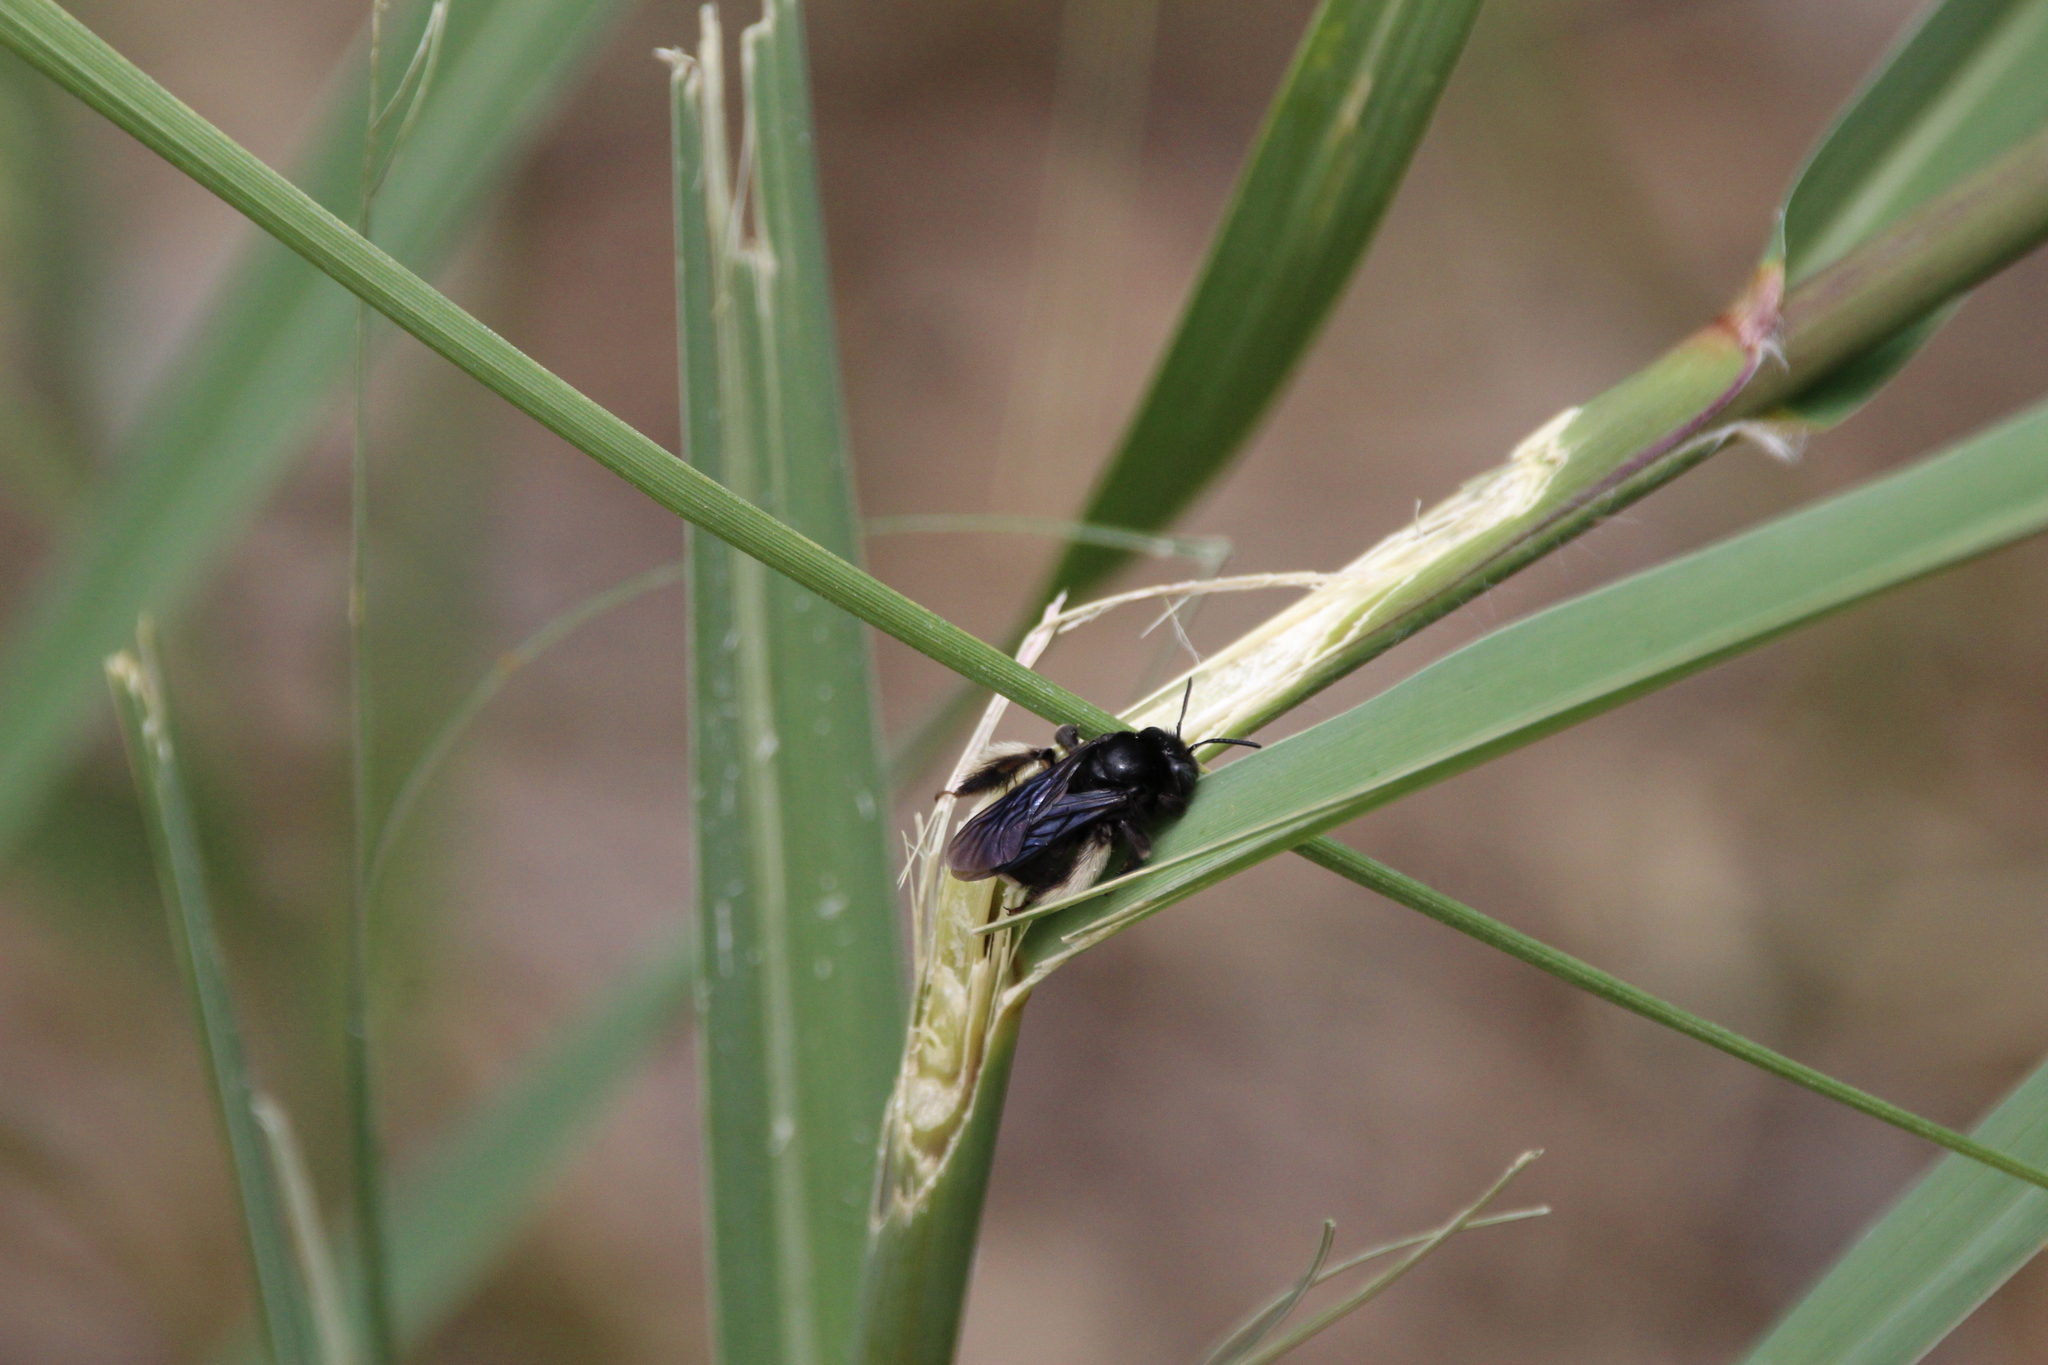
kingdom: Animalia
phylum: Arthropoda
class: Insecta
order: Hymenoptera
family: Apidae
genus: Melissodes
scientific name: Melissodes bimaculatus
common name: Two-spotted long-horned bee
